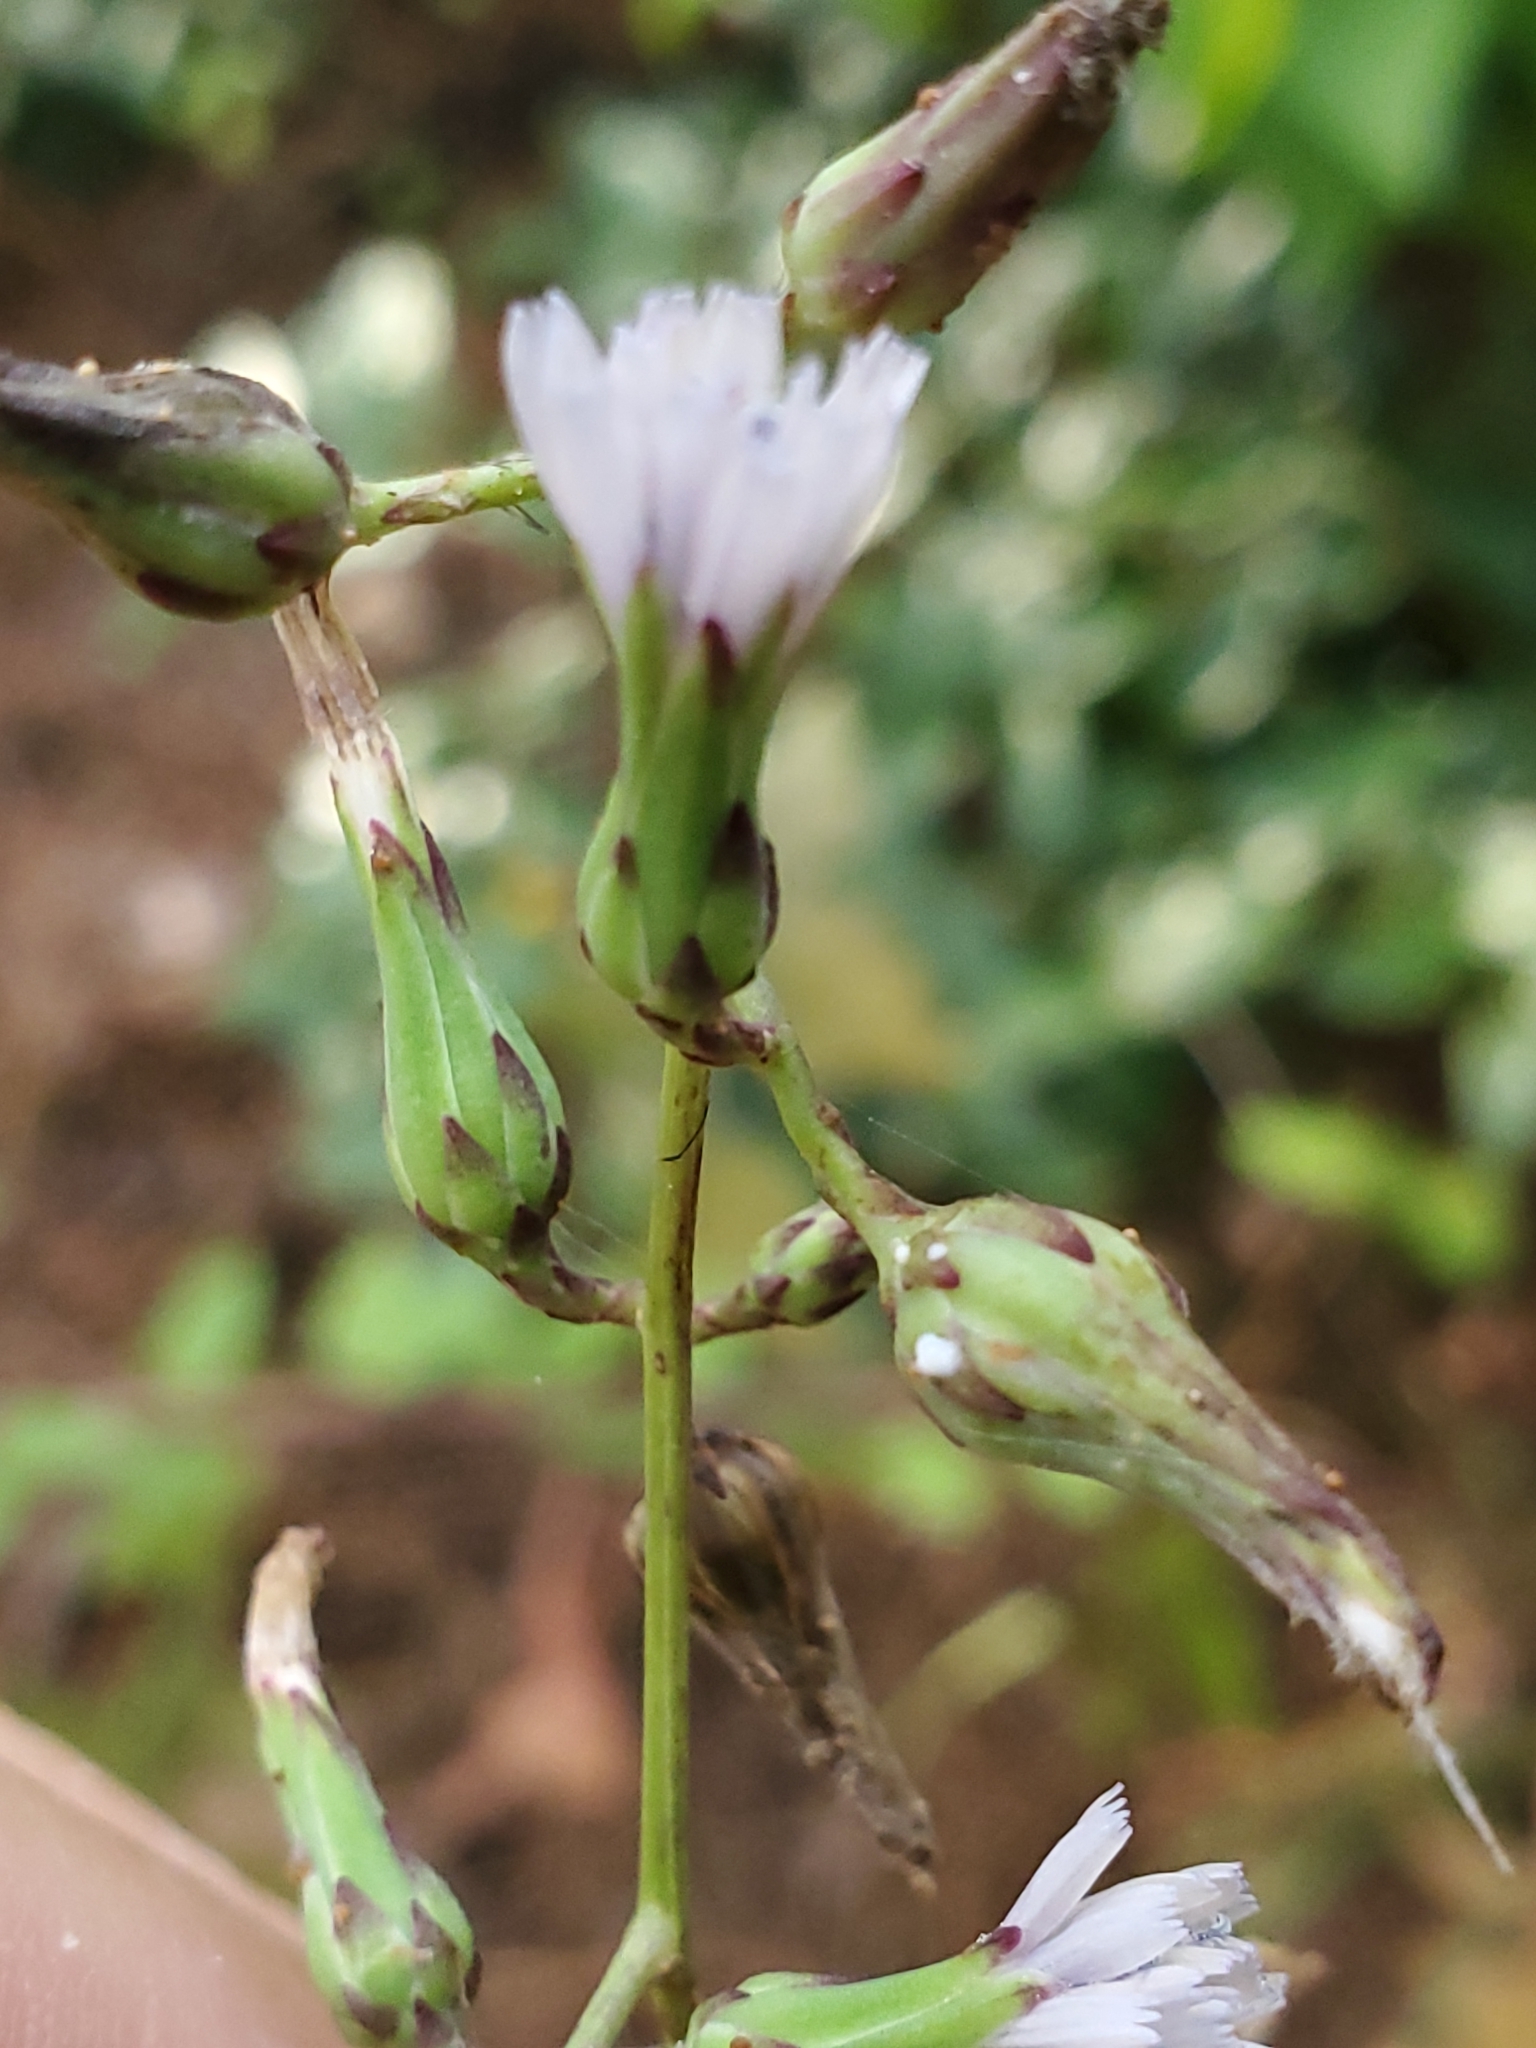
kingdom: Plantae
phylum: Tracheophyta
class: Magnoliopsida
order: Asterales
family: Asteraceae
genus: Lactuca
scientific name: Lactuca floridana
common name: Woodland lettuce
